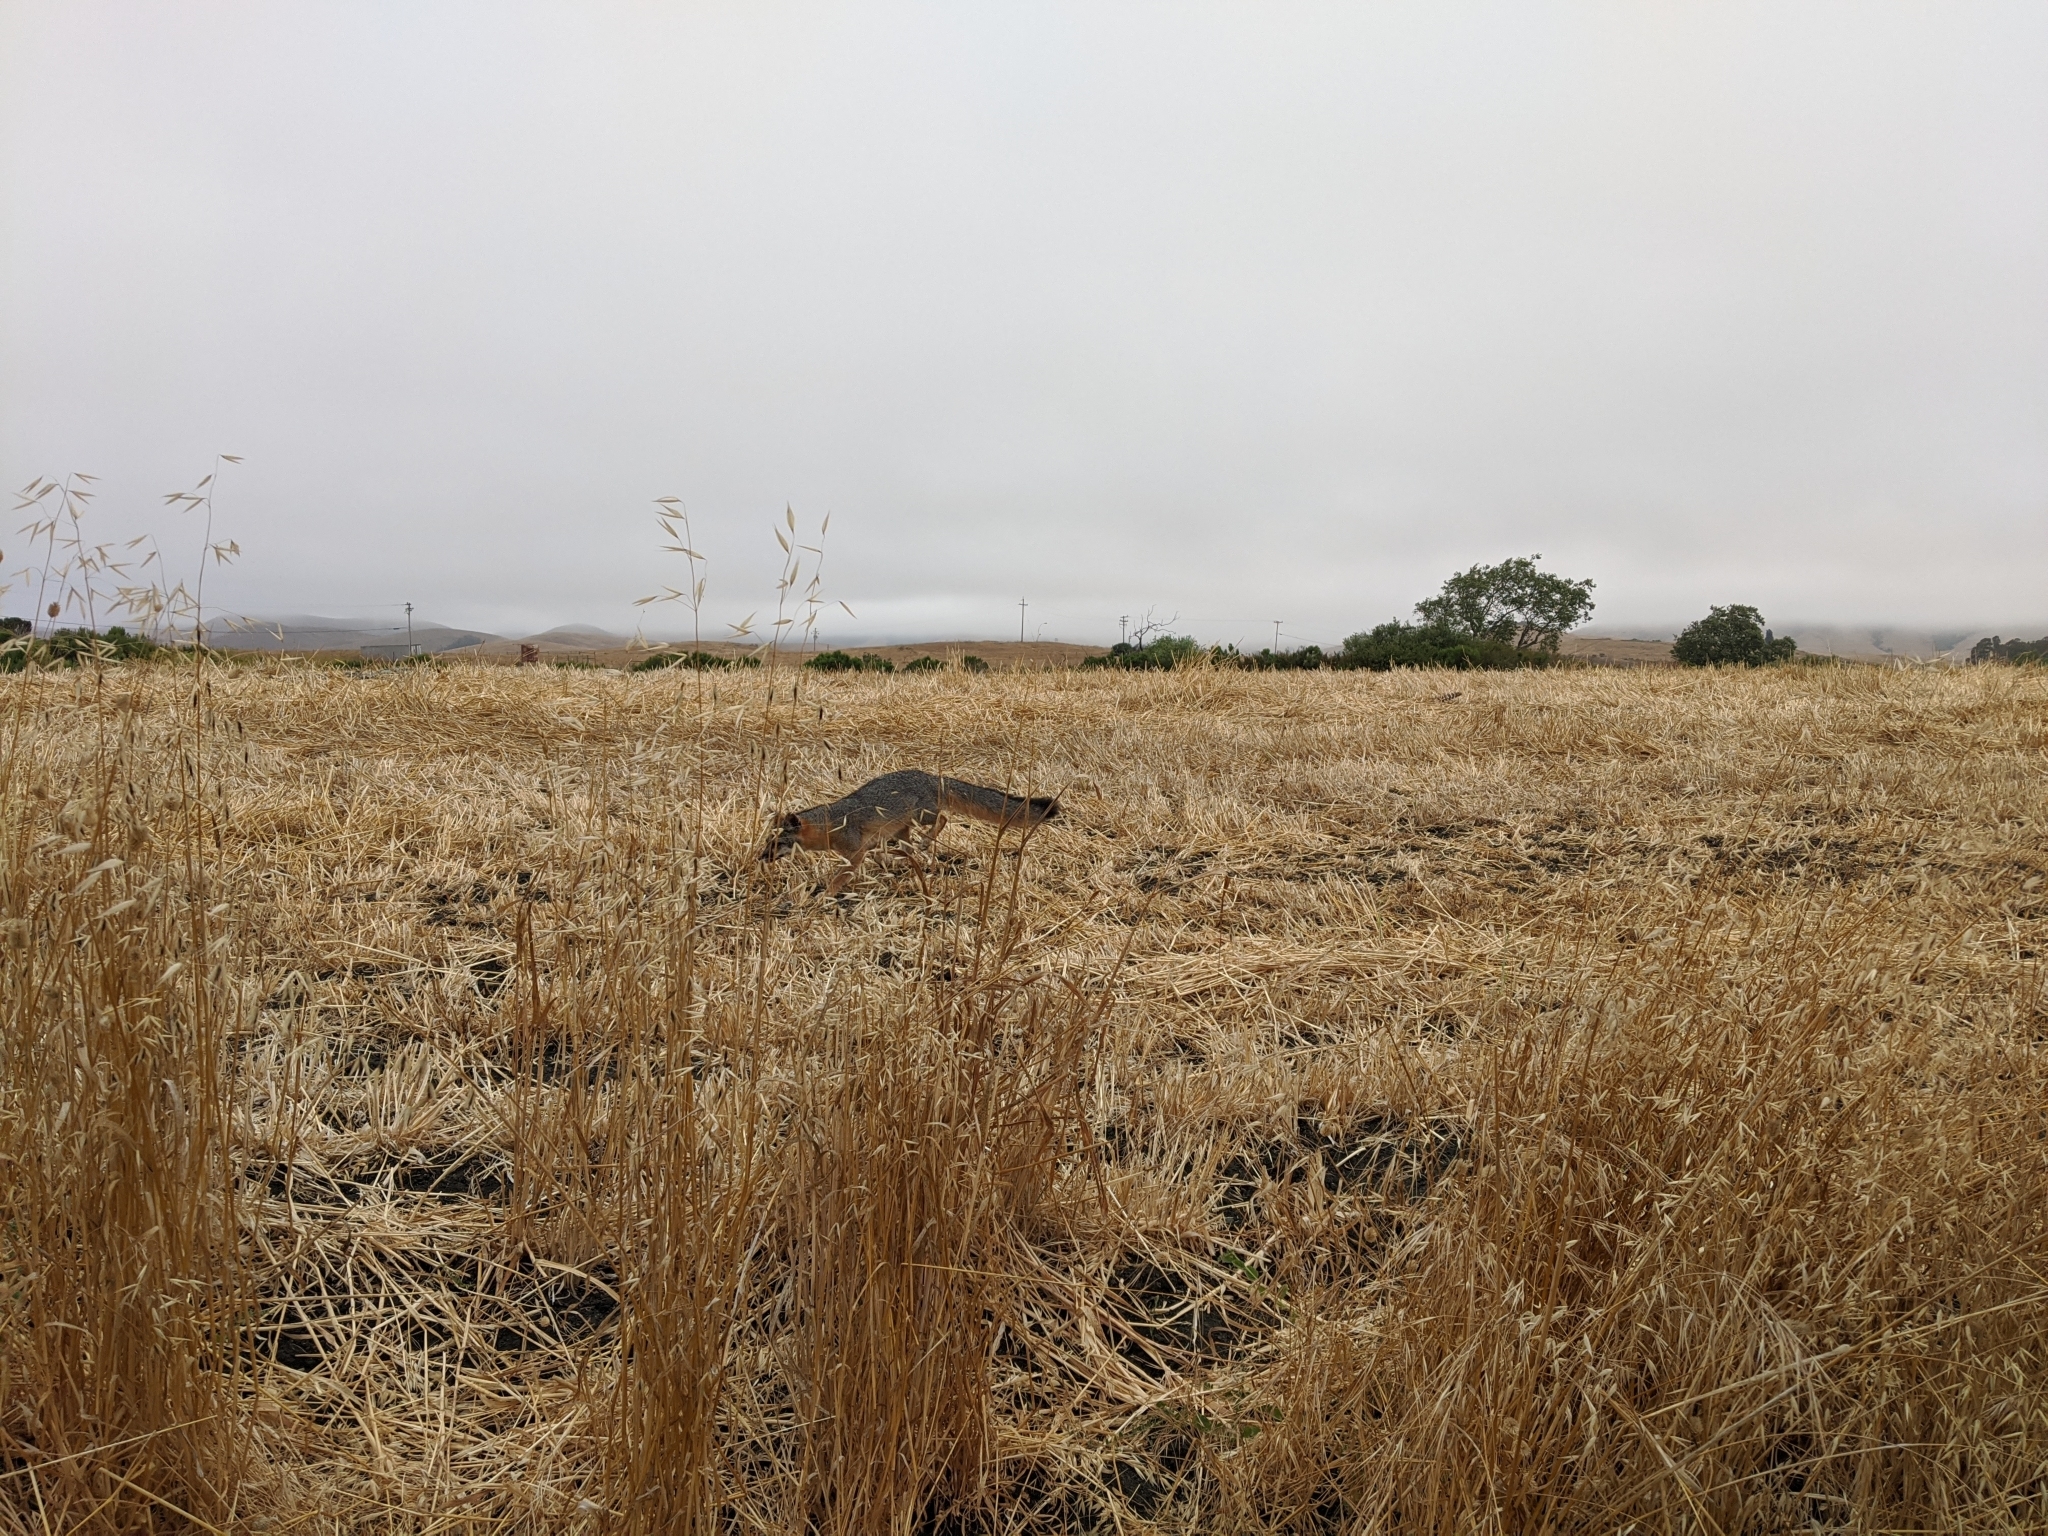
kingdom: Animalia
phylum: Chordata
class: Mammalia
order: Carnivora
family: Canidae
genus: Urocyon
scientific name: Urocyon cinereoargenteus
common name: Gray fox
